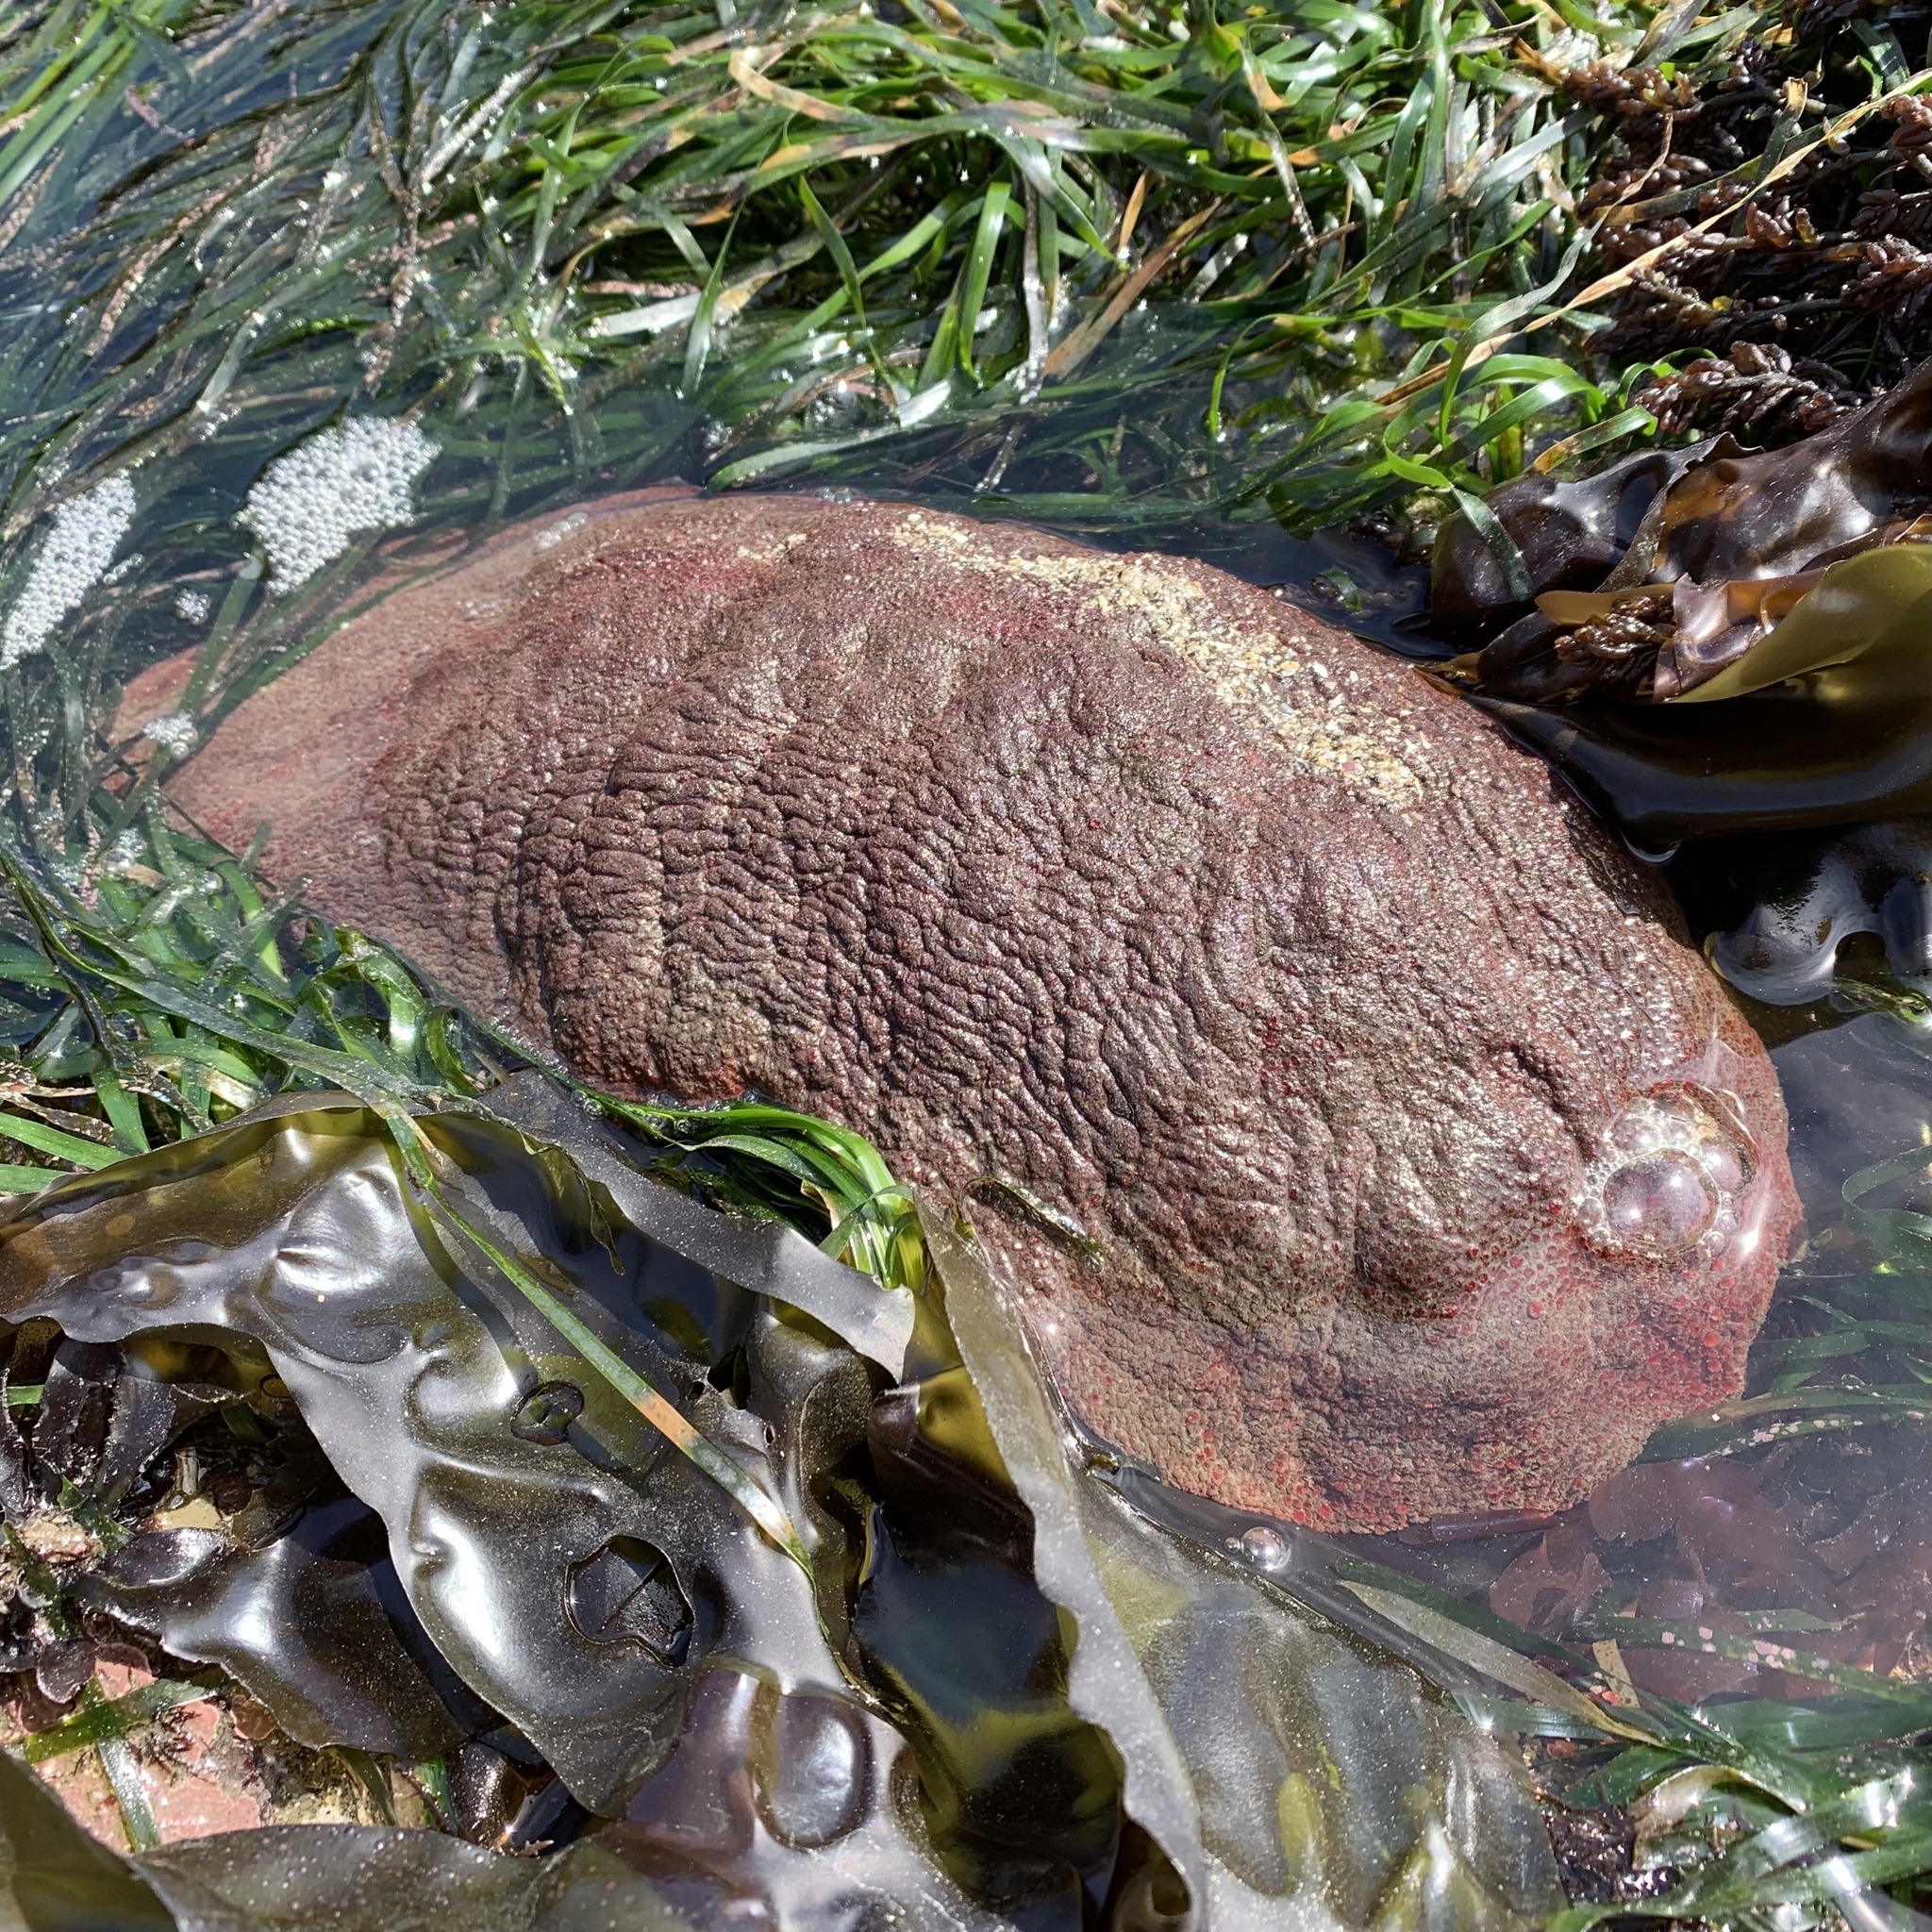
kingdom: Animalia
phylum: Mollusca
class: Polyplacophora
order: Chitonida
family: Acanthochitonidae
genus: Cryptochiton
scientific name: Cryptochiton stelleri
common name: Giant pacific chiton
